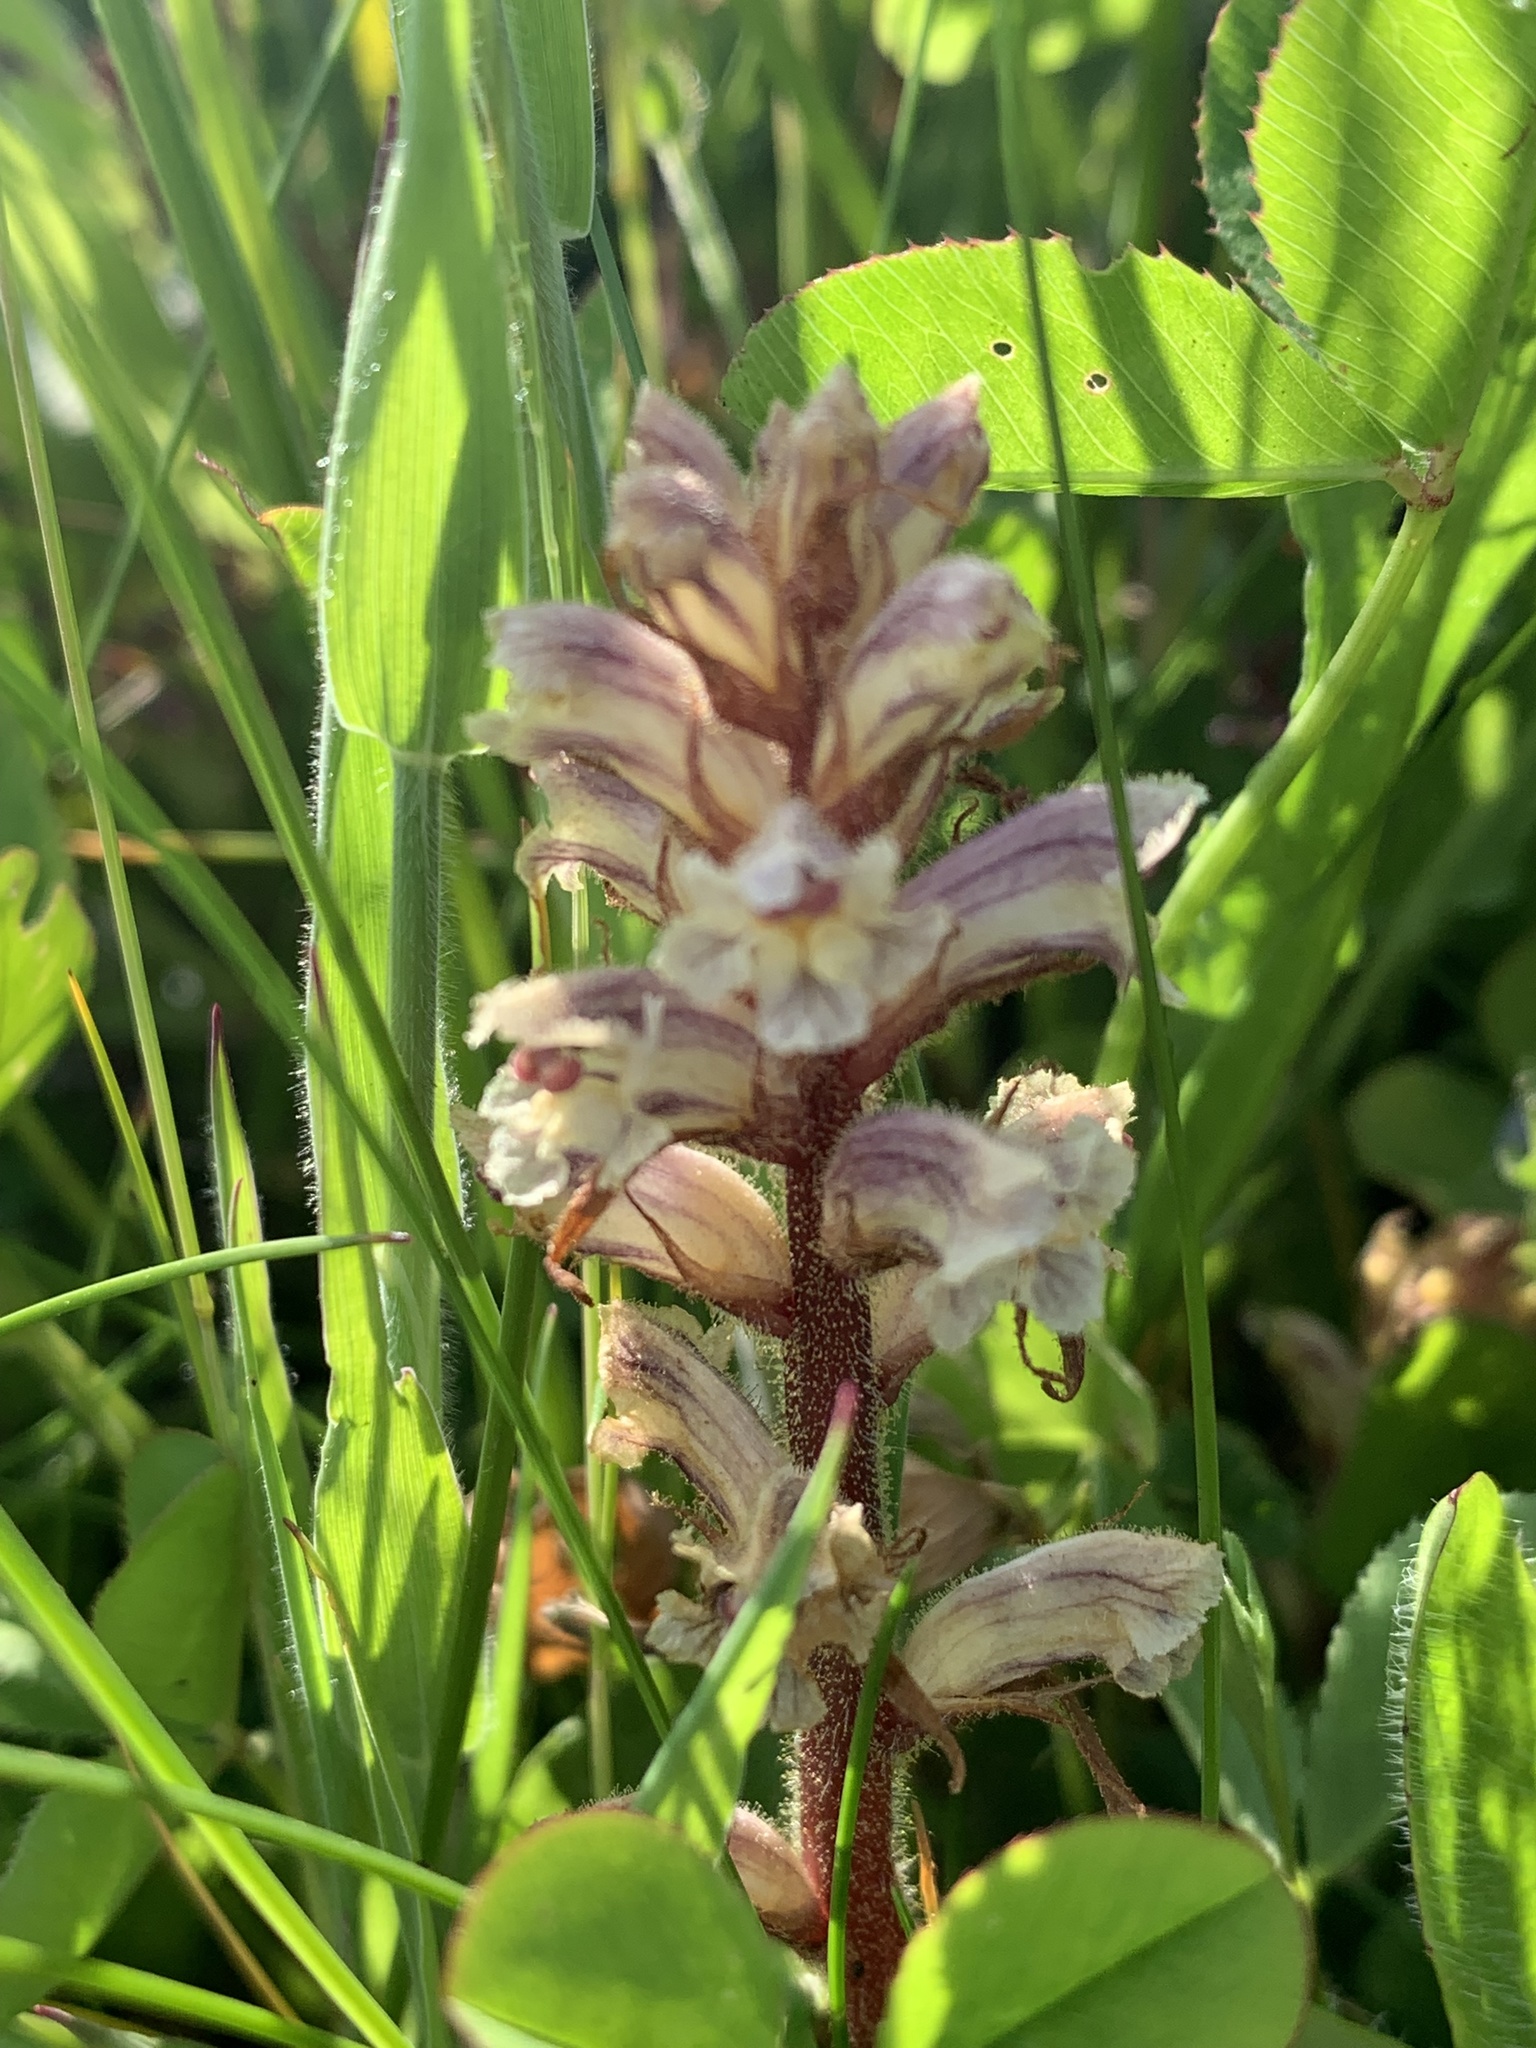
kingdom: Plantae
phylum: Tracheophyta
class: Magnoliopsida
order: Lamiales
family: Orobanchaceae
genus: Orobanche
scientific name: Orobanche minor
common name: Common broomrape
